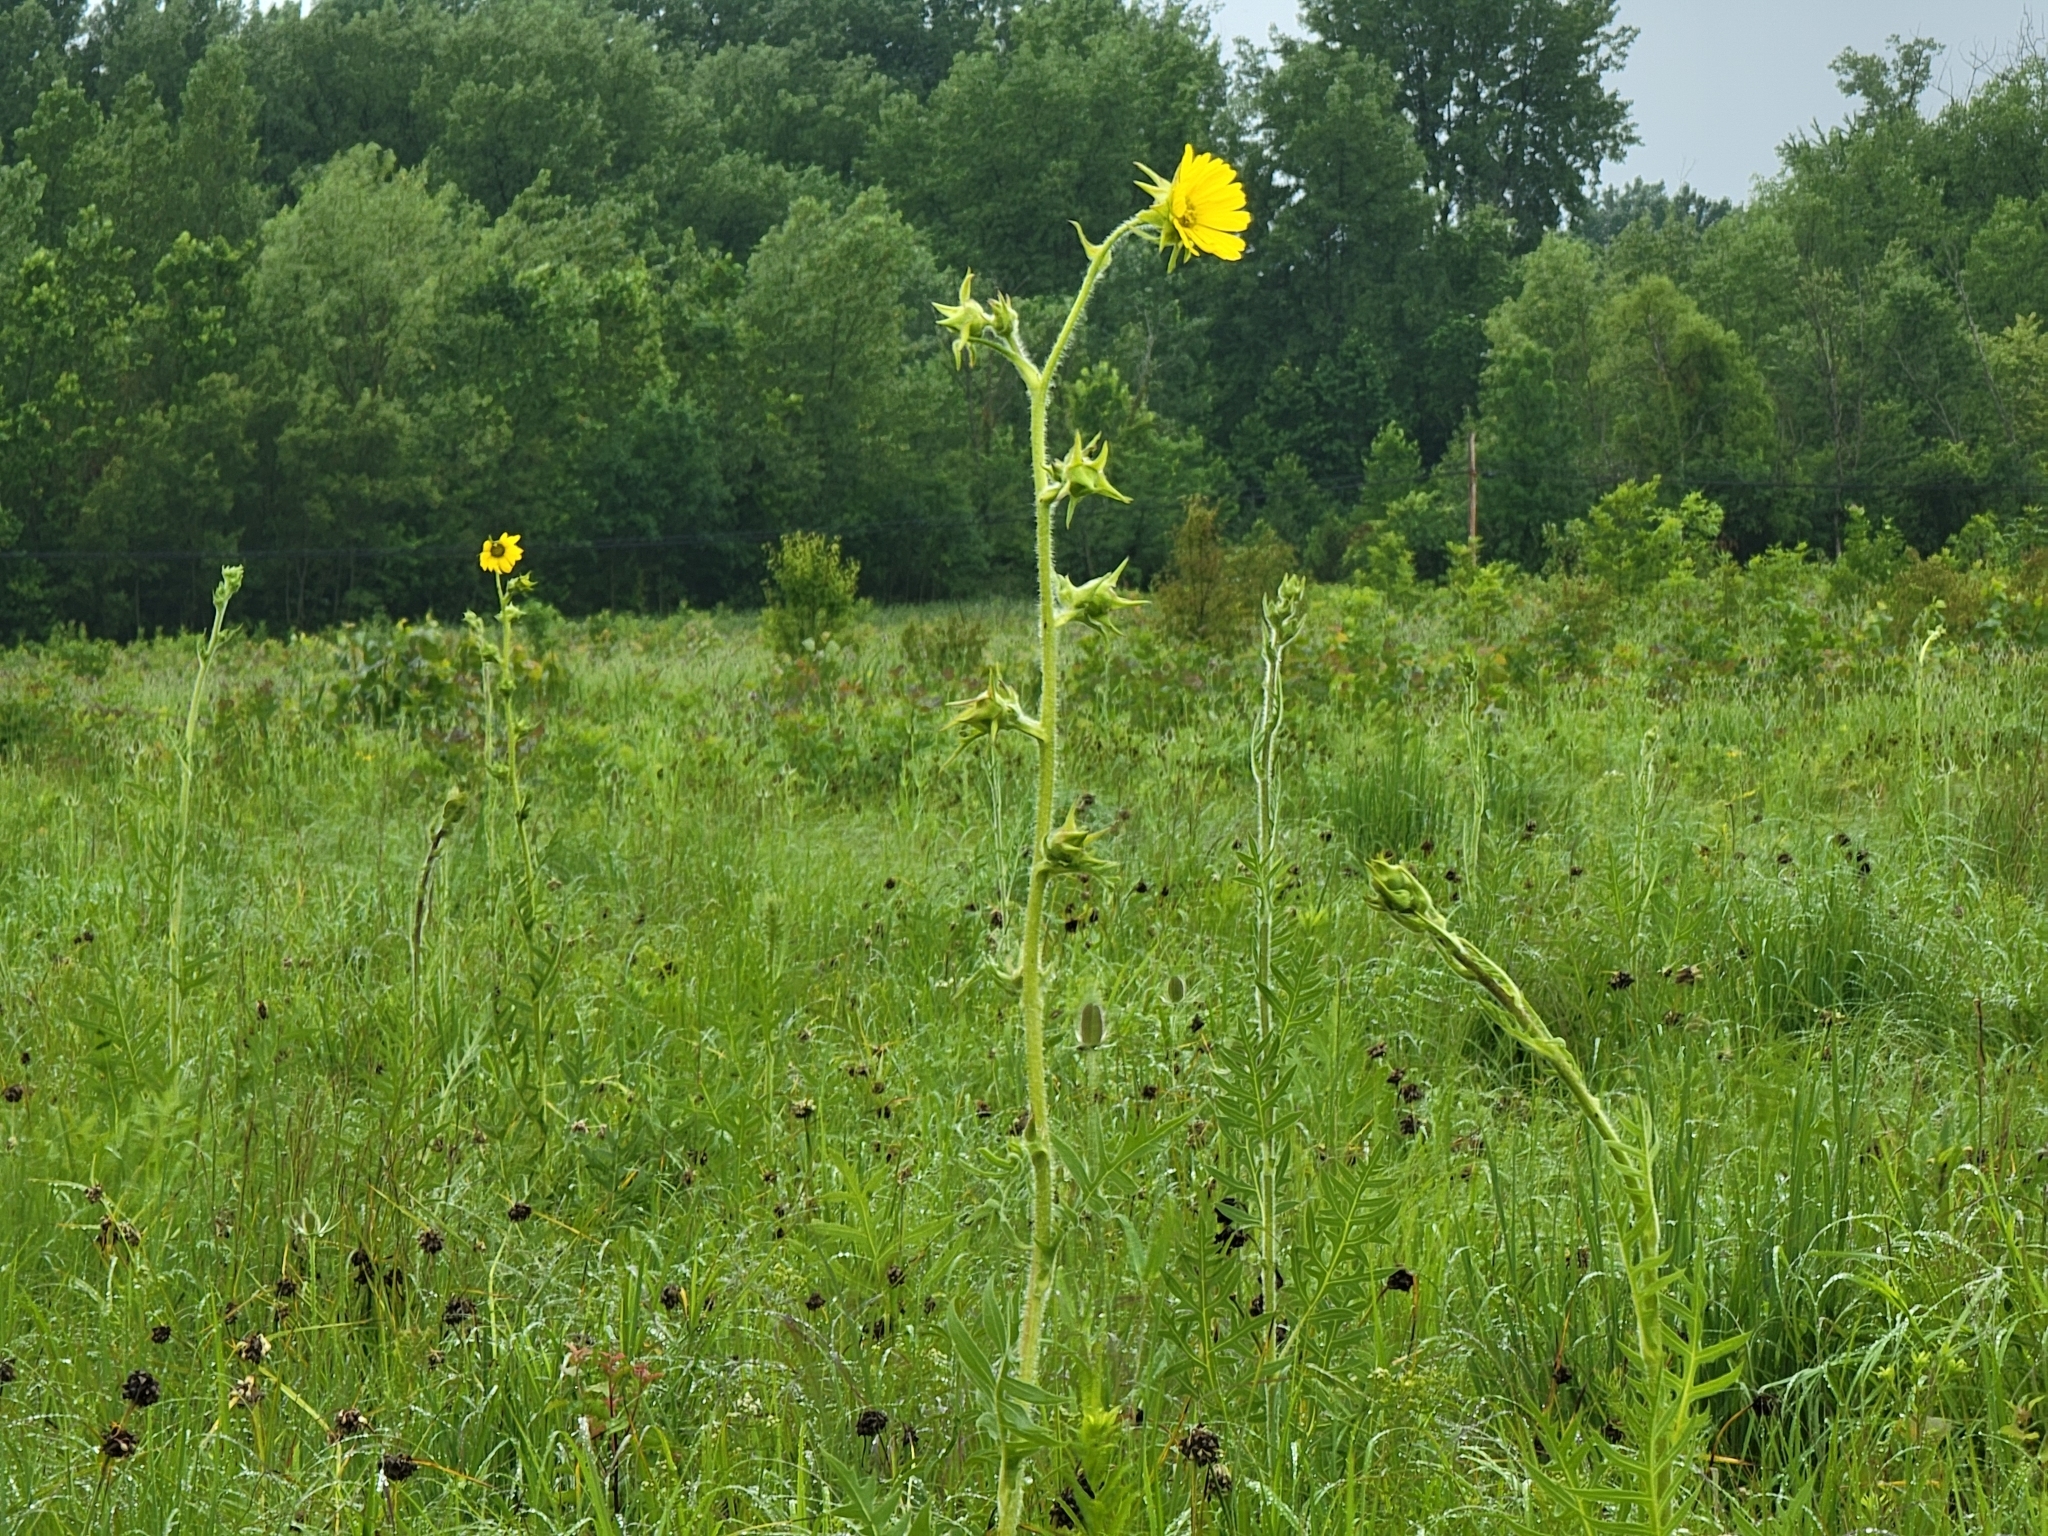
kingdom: Plantae
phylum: Tracheophyta
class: Magnoliopsida
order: Asterales
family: Asteraceae
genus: Silphium
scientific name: Silphium laciniatum
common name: Polarplant
